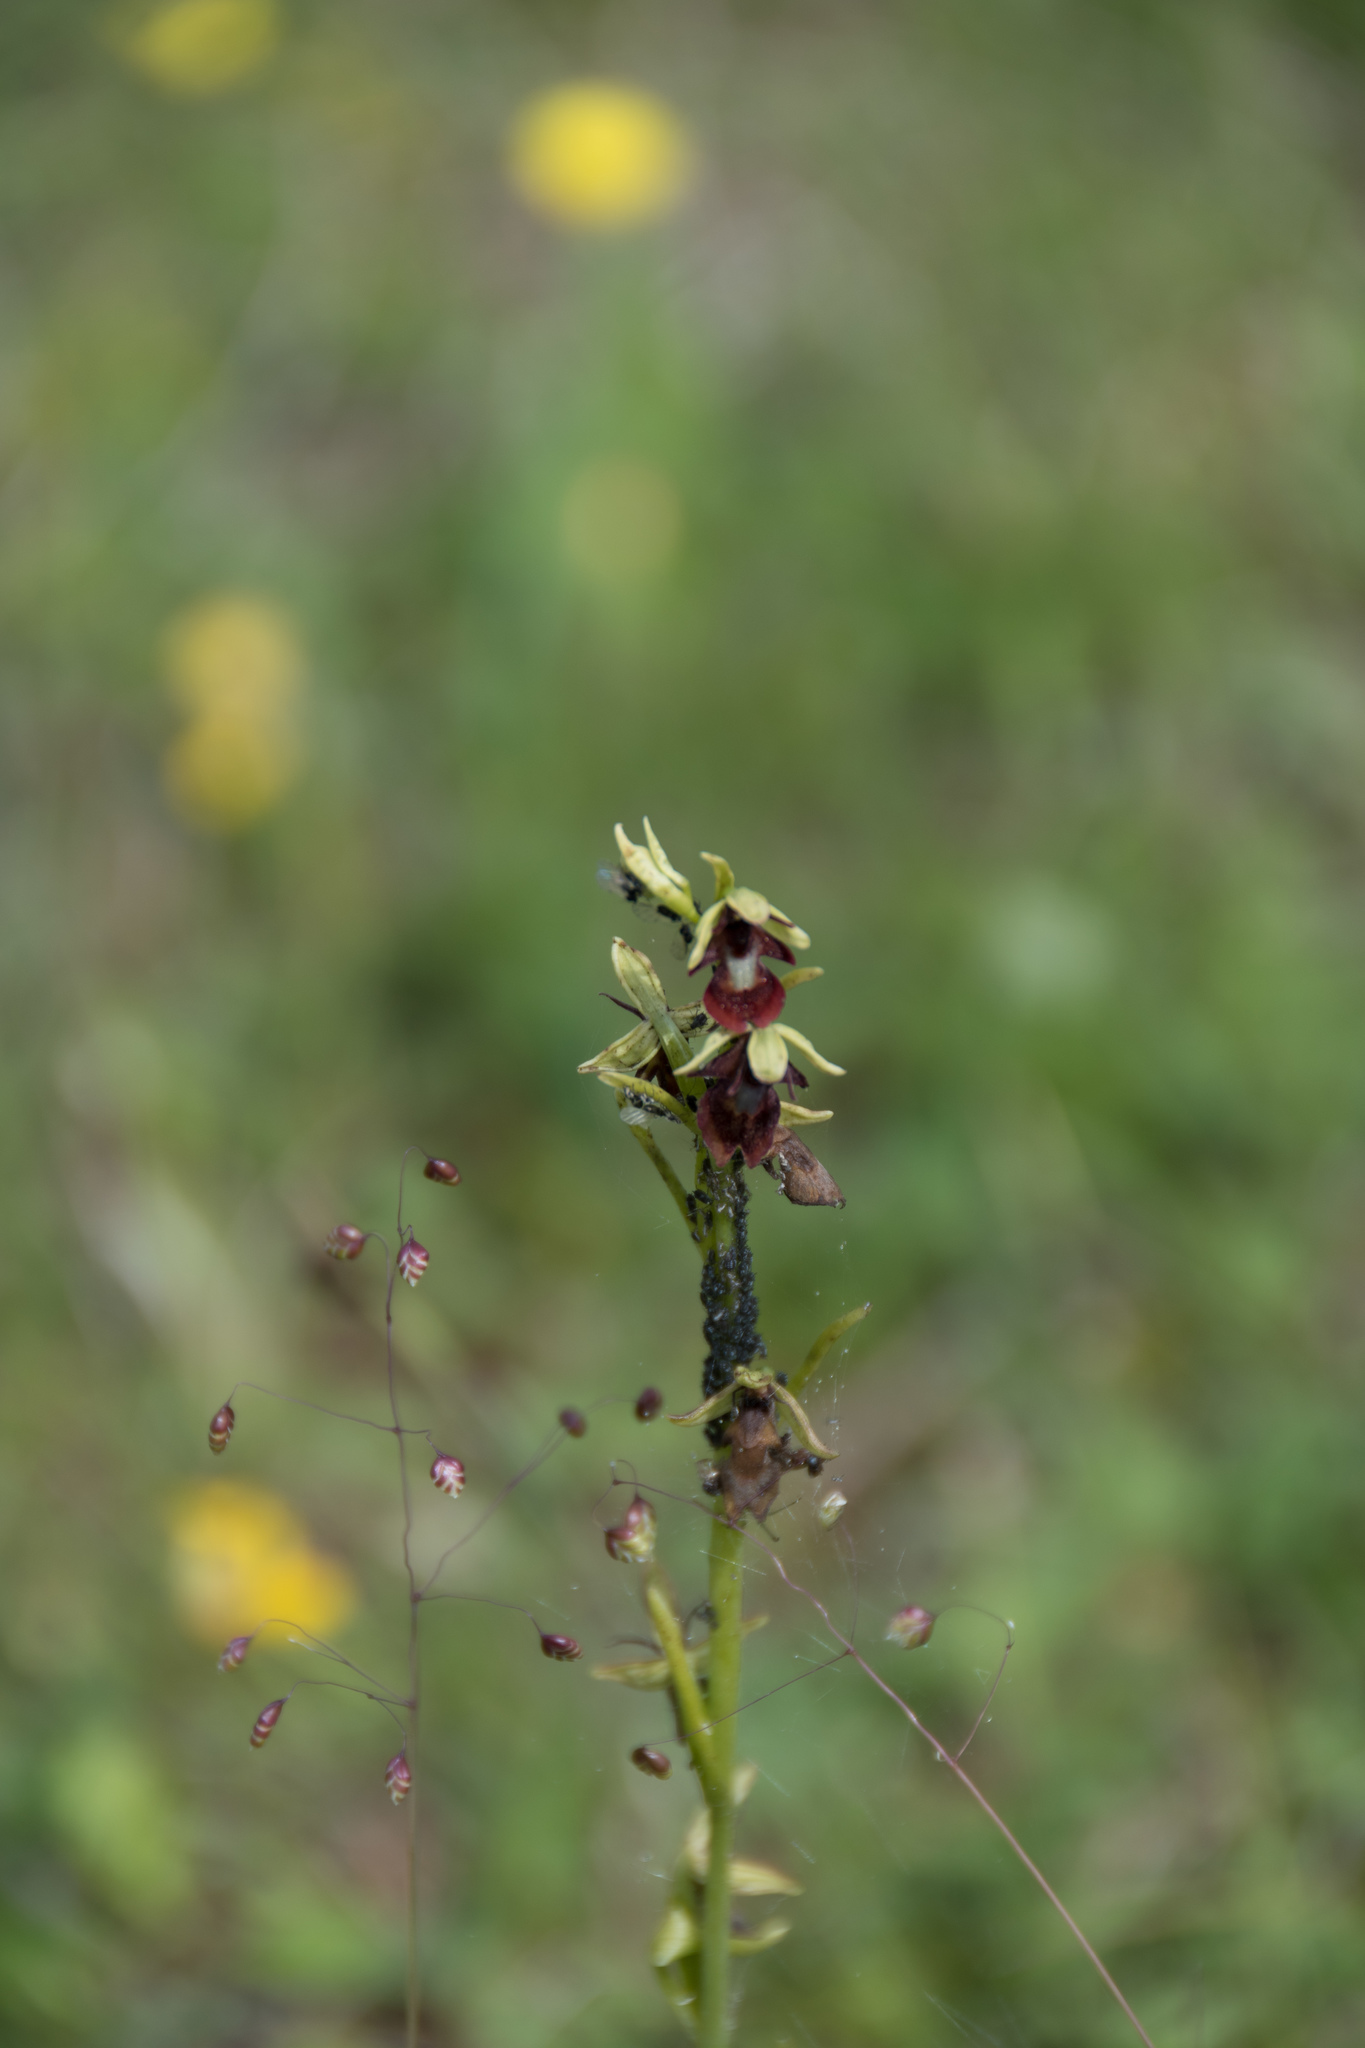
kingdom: Plantae
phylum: Tracheophyta
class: Liliopsida
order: Asparagales
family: Orchidaceae
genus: Ophrys
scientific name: Ophrys insectifera
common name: Fly orchid
